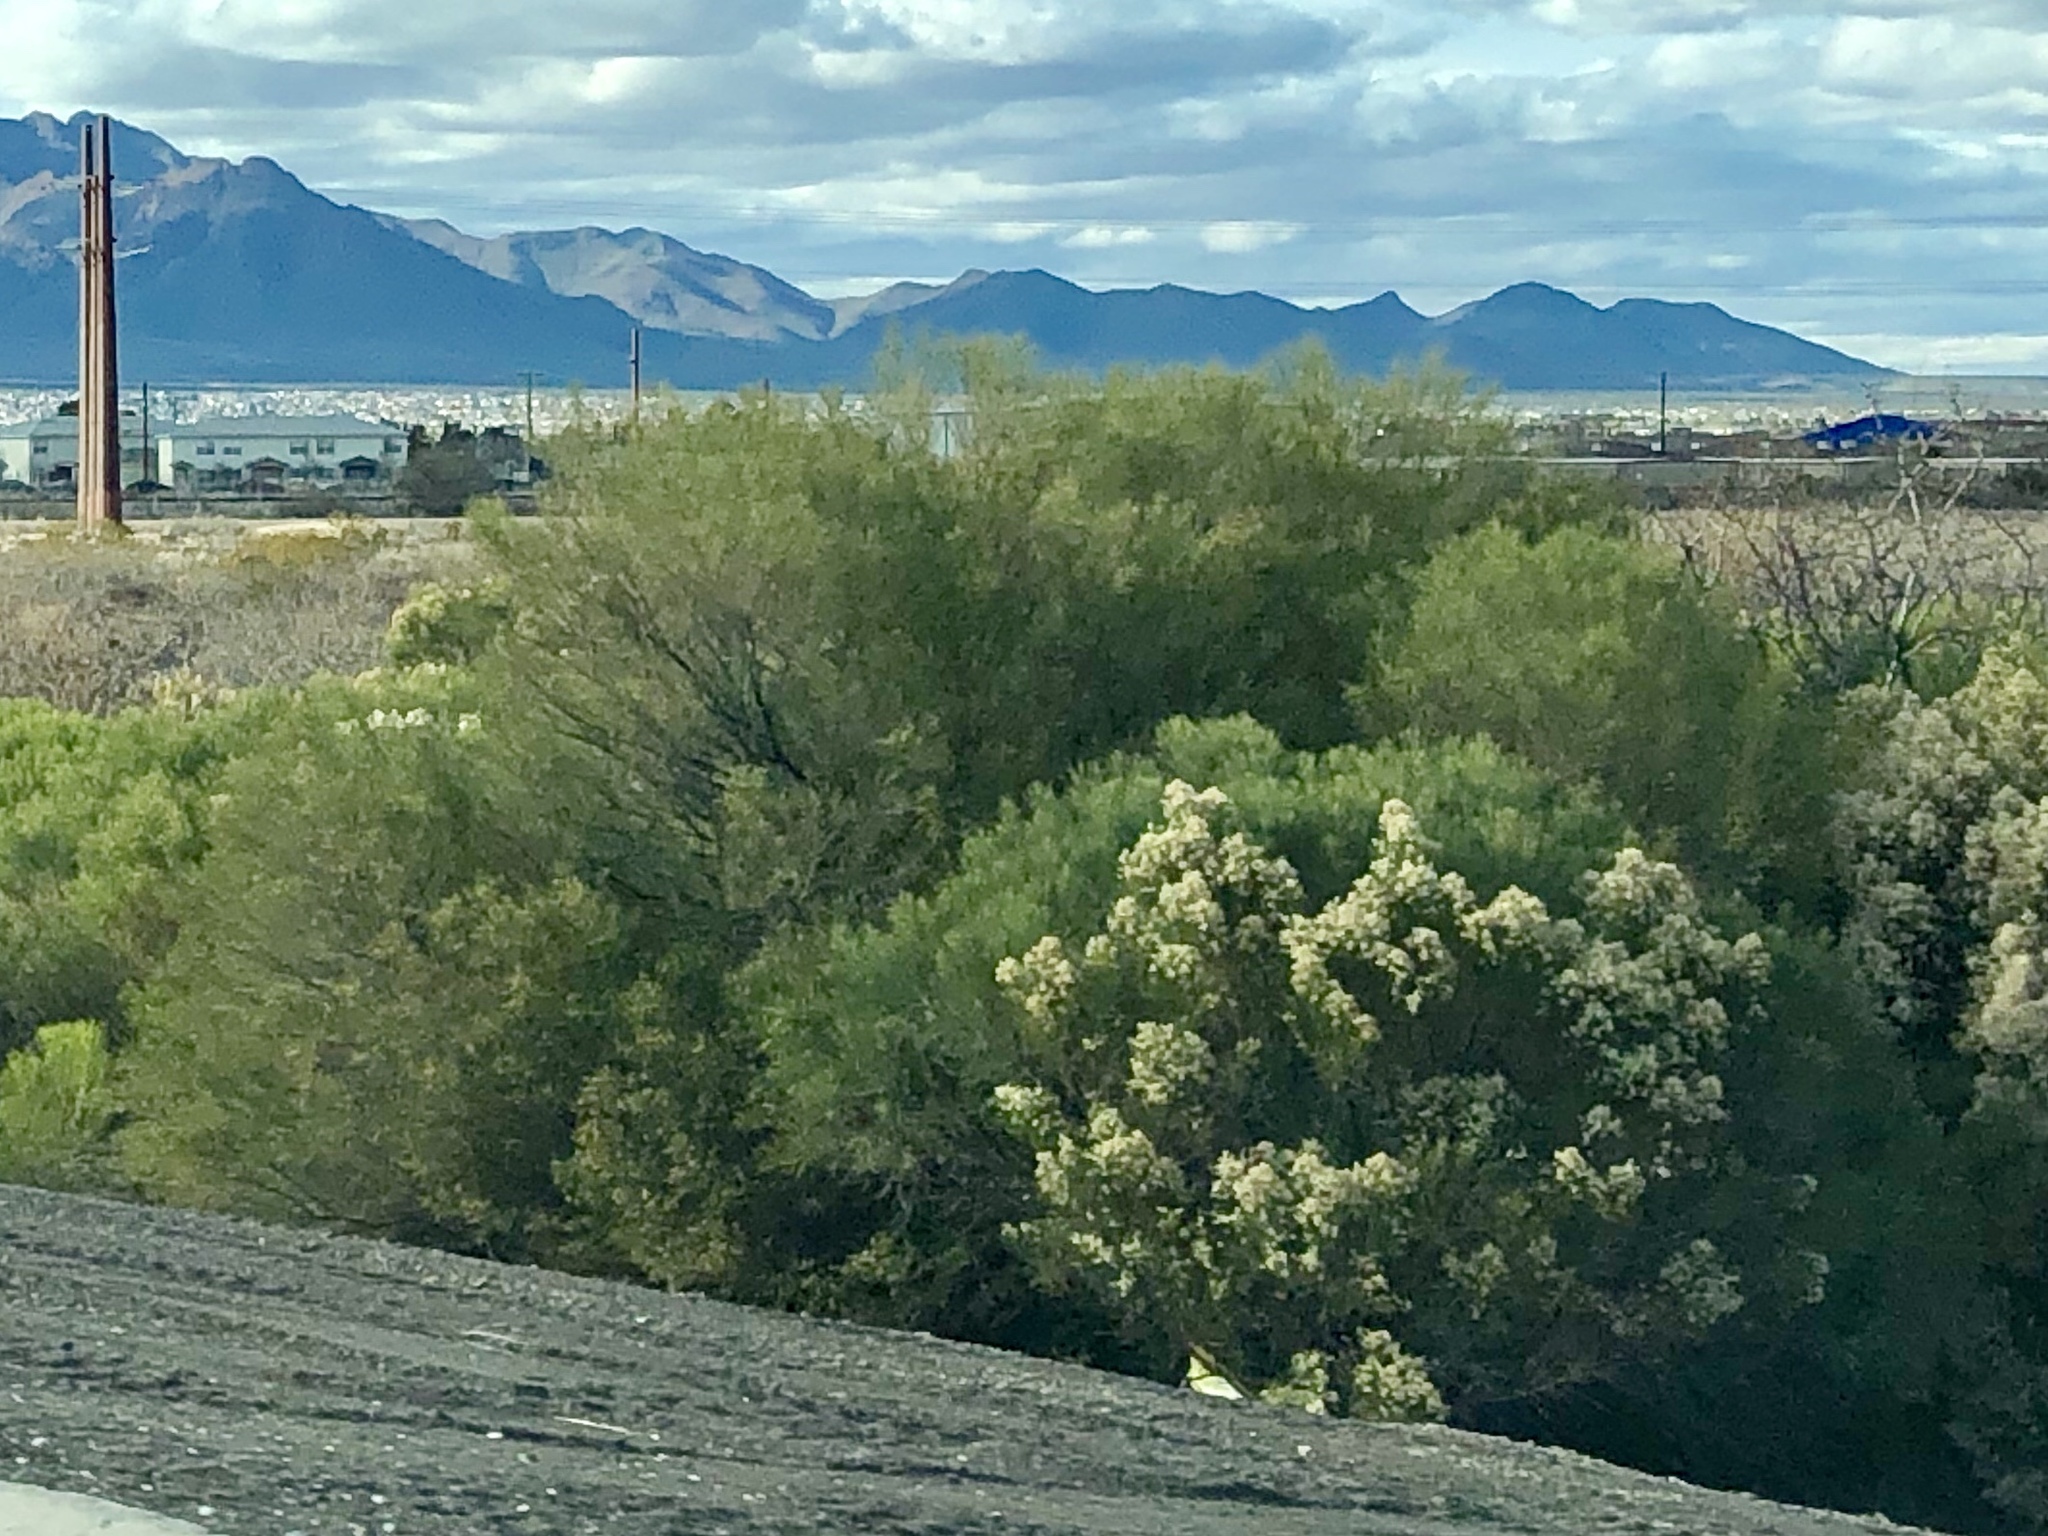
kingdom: Plantae
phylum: Tracheophyta
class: Magnoliopsida
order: Asterales
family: Asteraceae
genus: Baccharis
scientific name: Baccharis sarothroides
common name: Desert-broom
